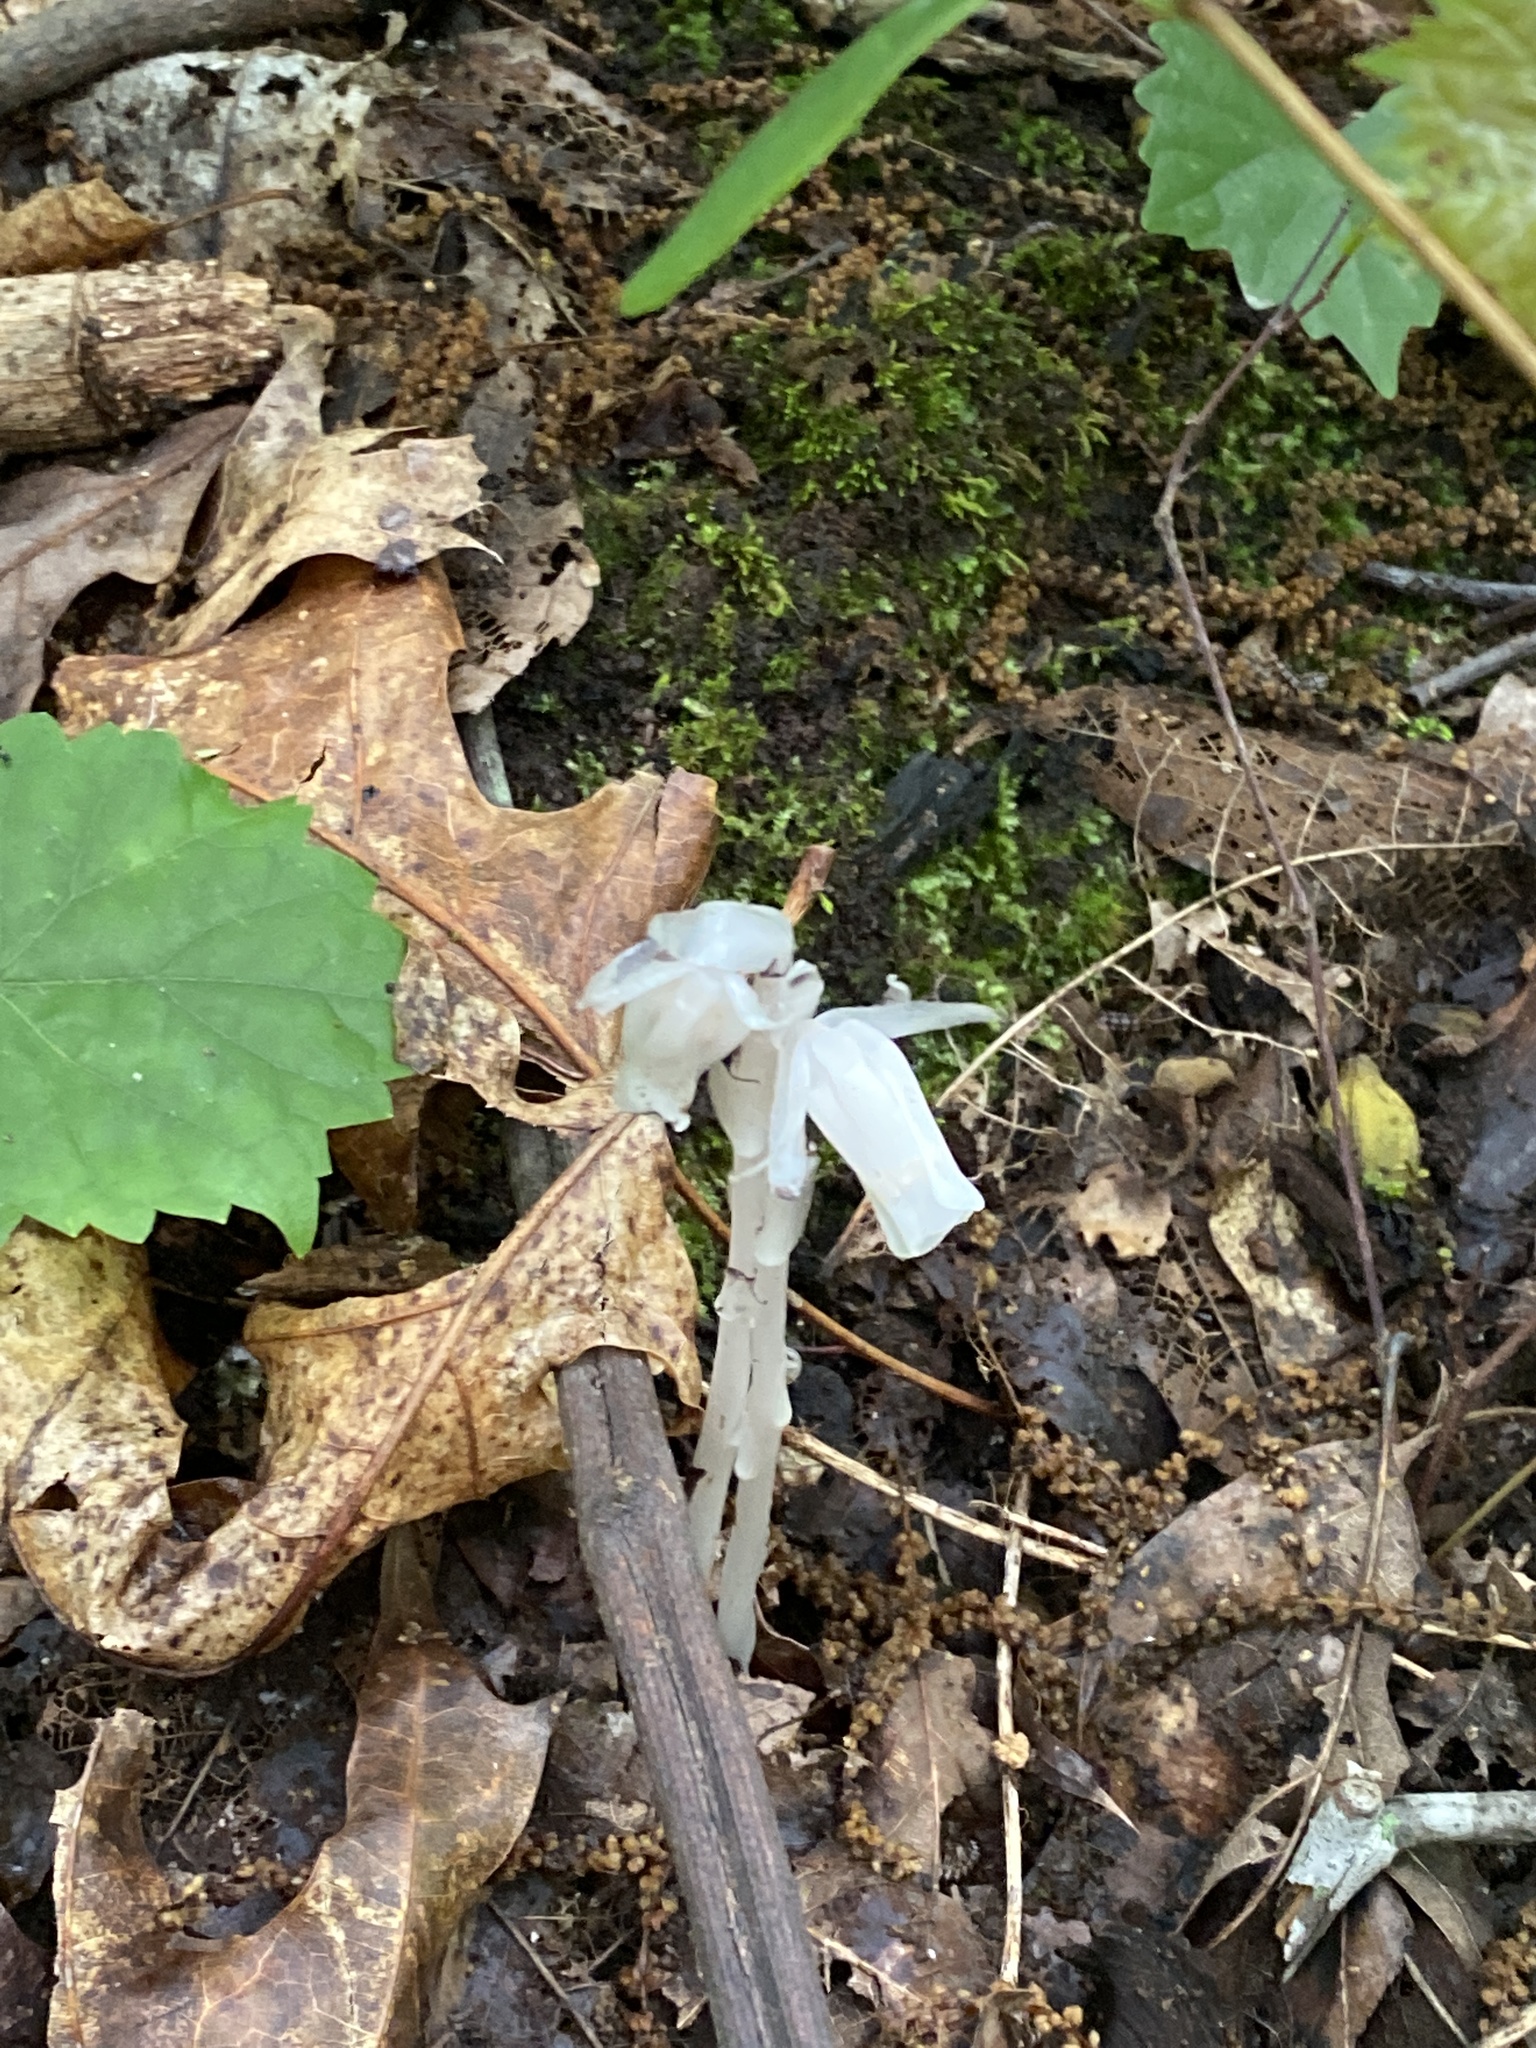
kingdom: Plantae
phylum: Tracheophyta
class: Magnoliopsida
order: Ericales
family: Ericaceae
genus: Monotropa
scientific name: Monotropa uniflora
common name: Convulsion root
